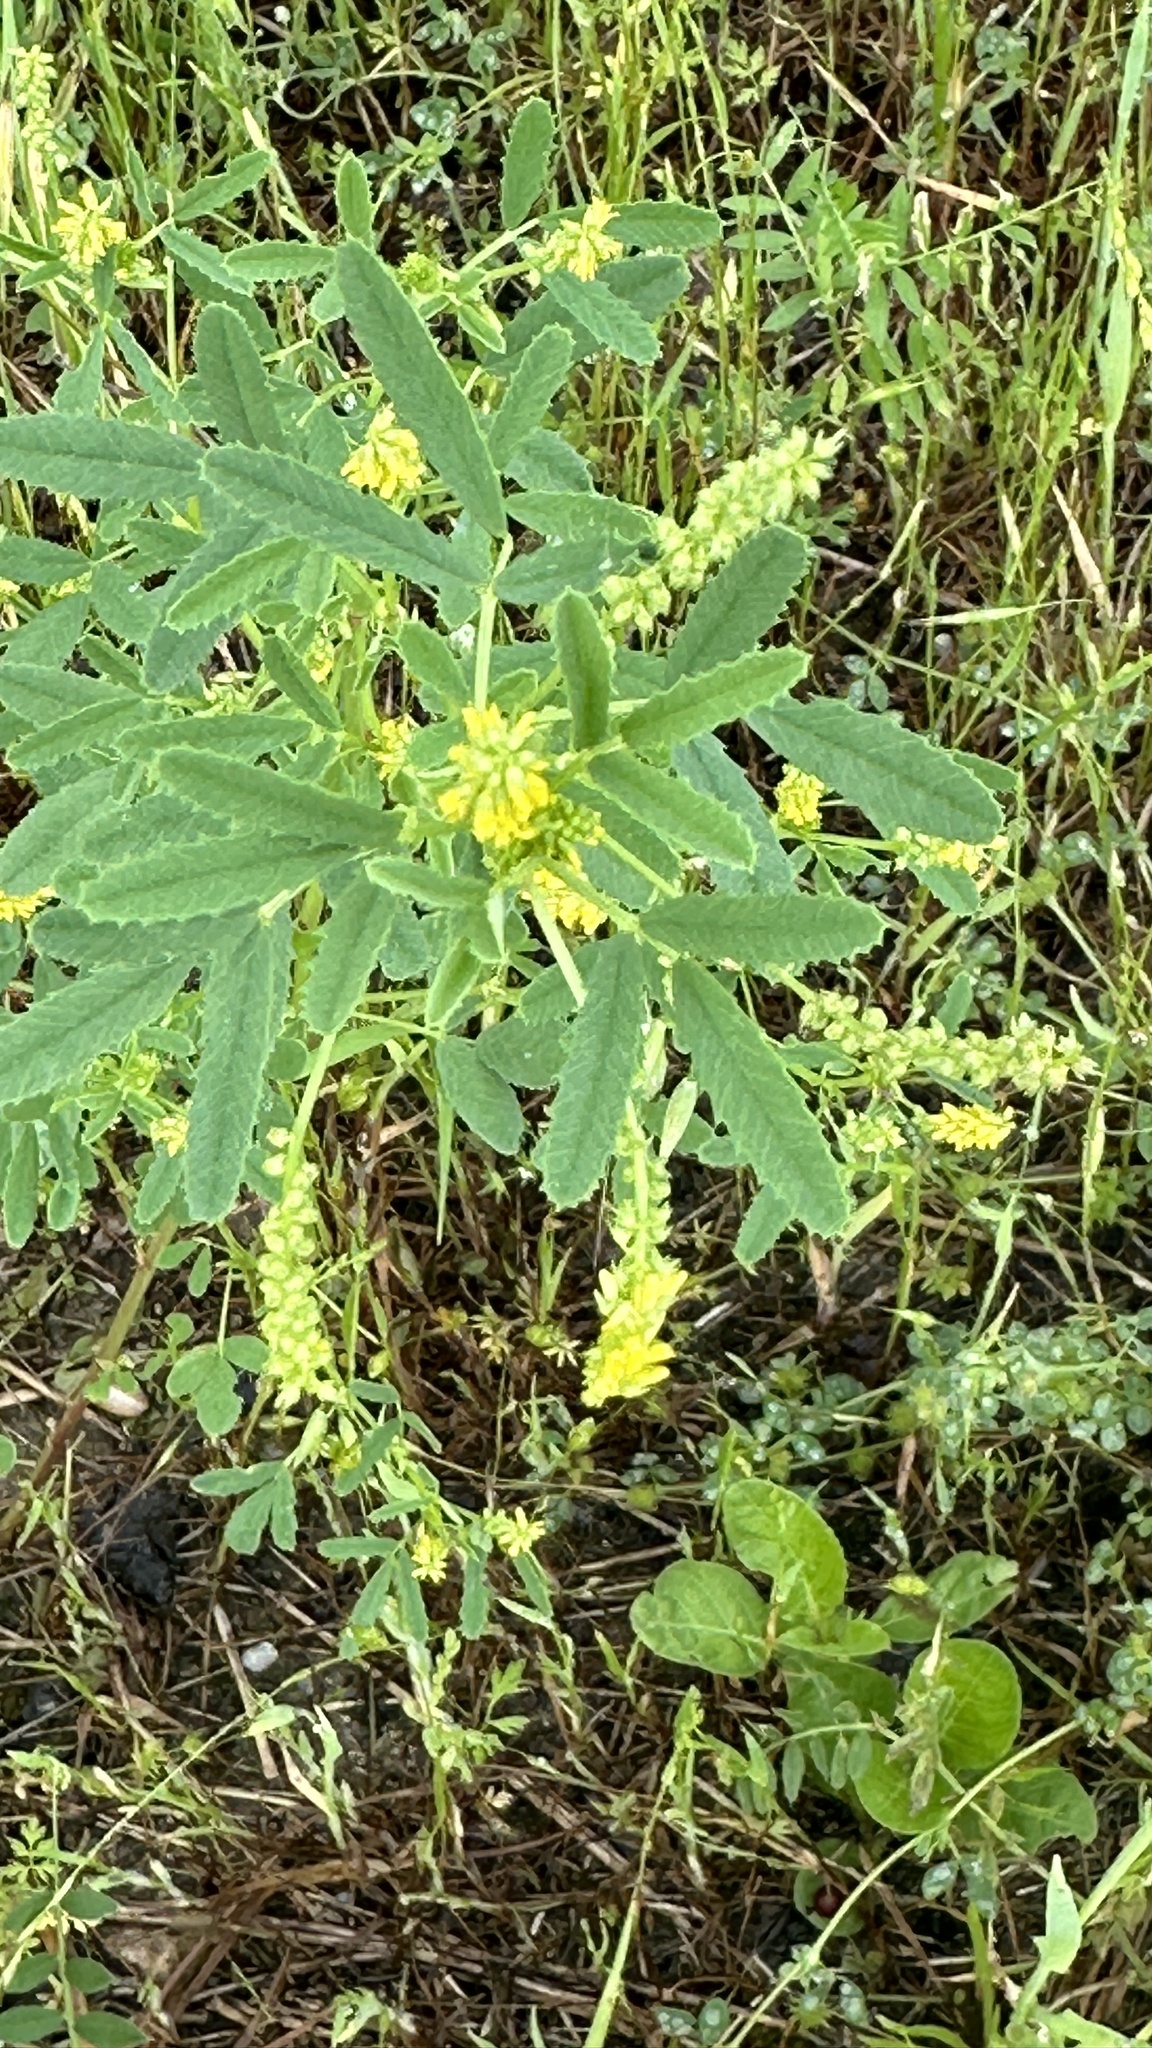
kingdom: Plantae
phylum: Tracheophyta
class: Magnoliopsida
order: Fabales
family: Fabaceae
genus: Melilotus
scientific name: Melilotus indicus
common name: Small melilot
